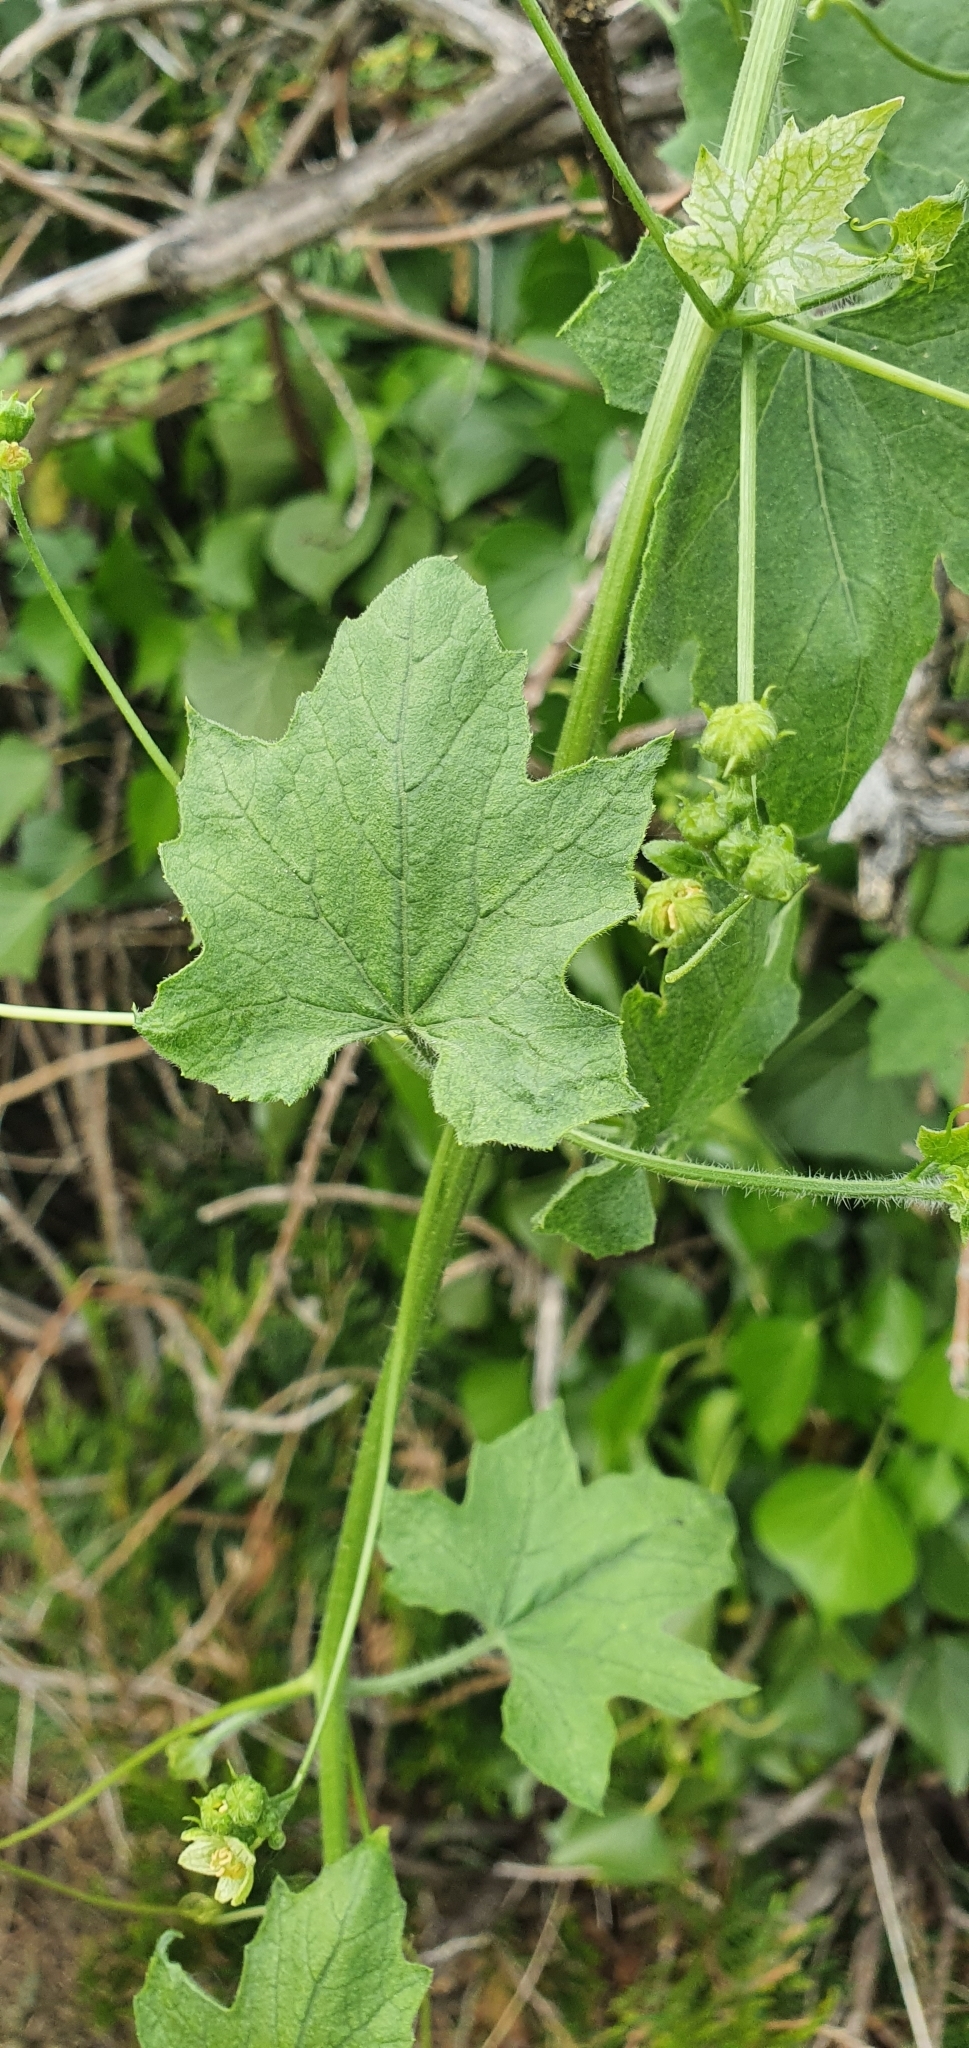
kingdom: Plantae
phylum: Tracheophyta
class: Magnoliopsida
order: Cucurbitales
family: Cucurbitaceae
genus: Bryonia
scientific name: Bryonia dioica
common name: White bryony
